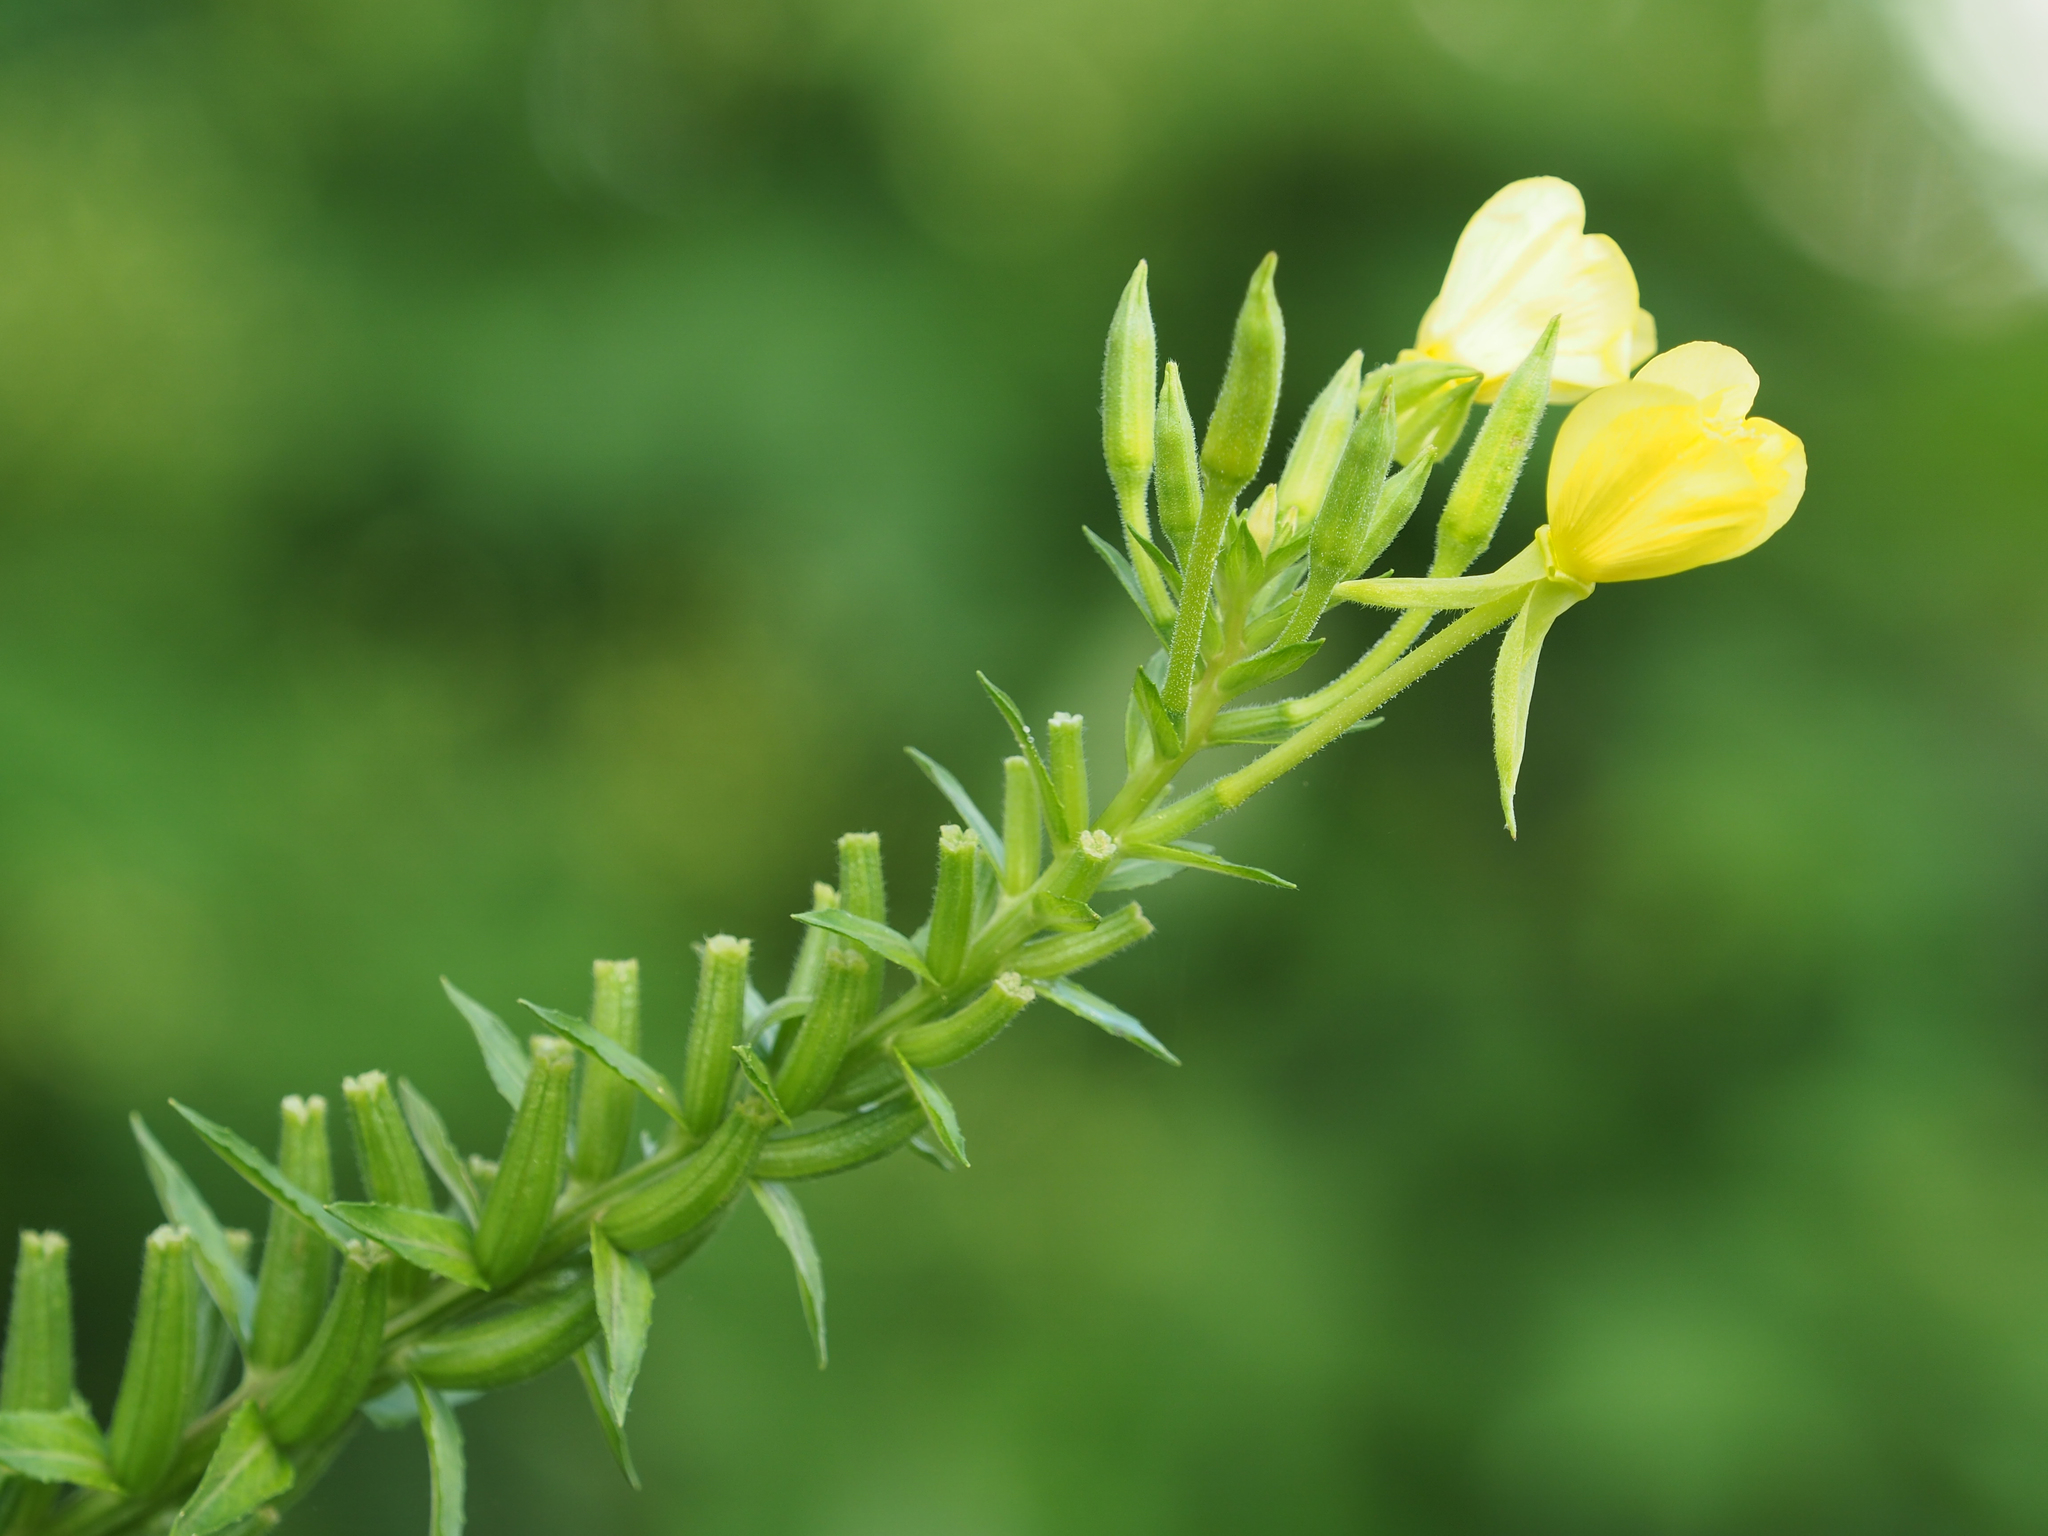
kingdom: Plantae
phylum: Tracheophyta
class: Magnoliopsida
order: Myrtales
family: Onagraceae
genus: Oenothera
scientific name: Oenothera parviflora
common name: Least evening-primrose
